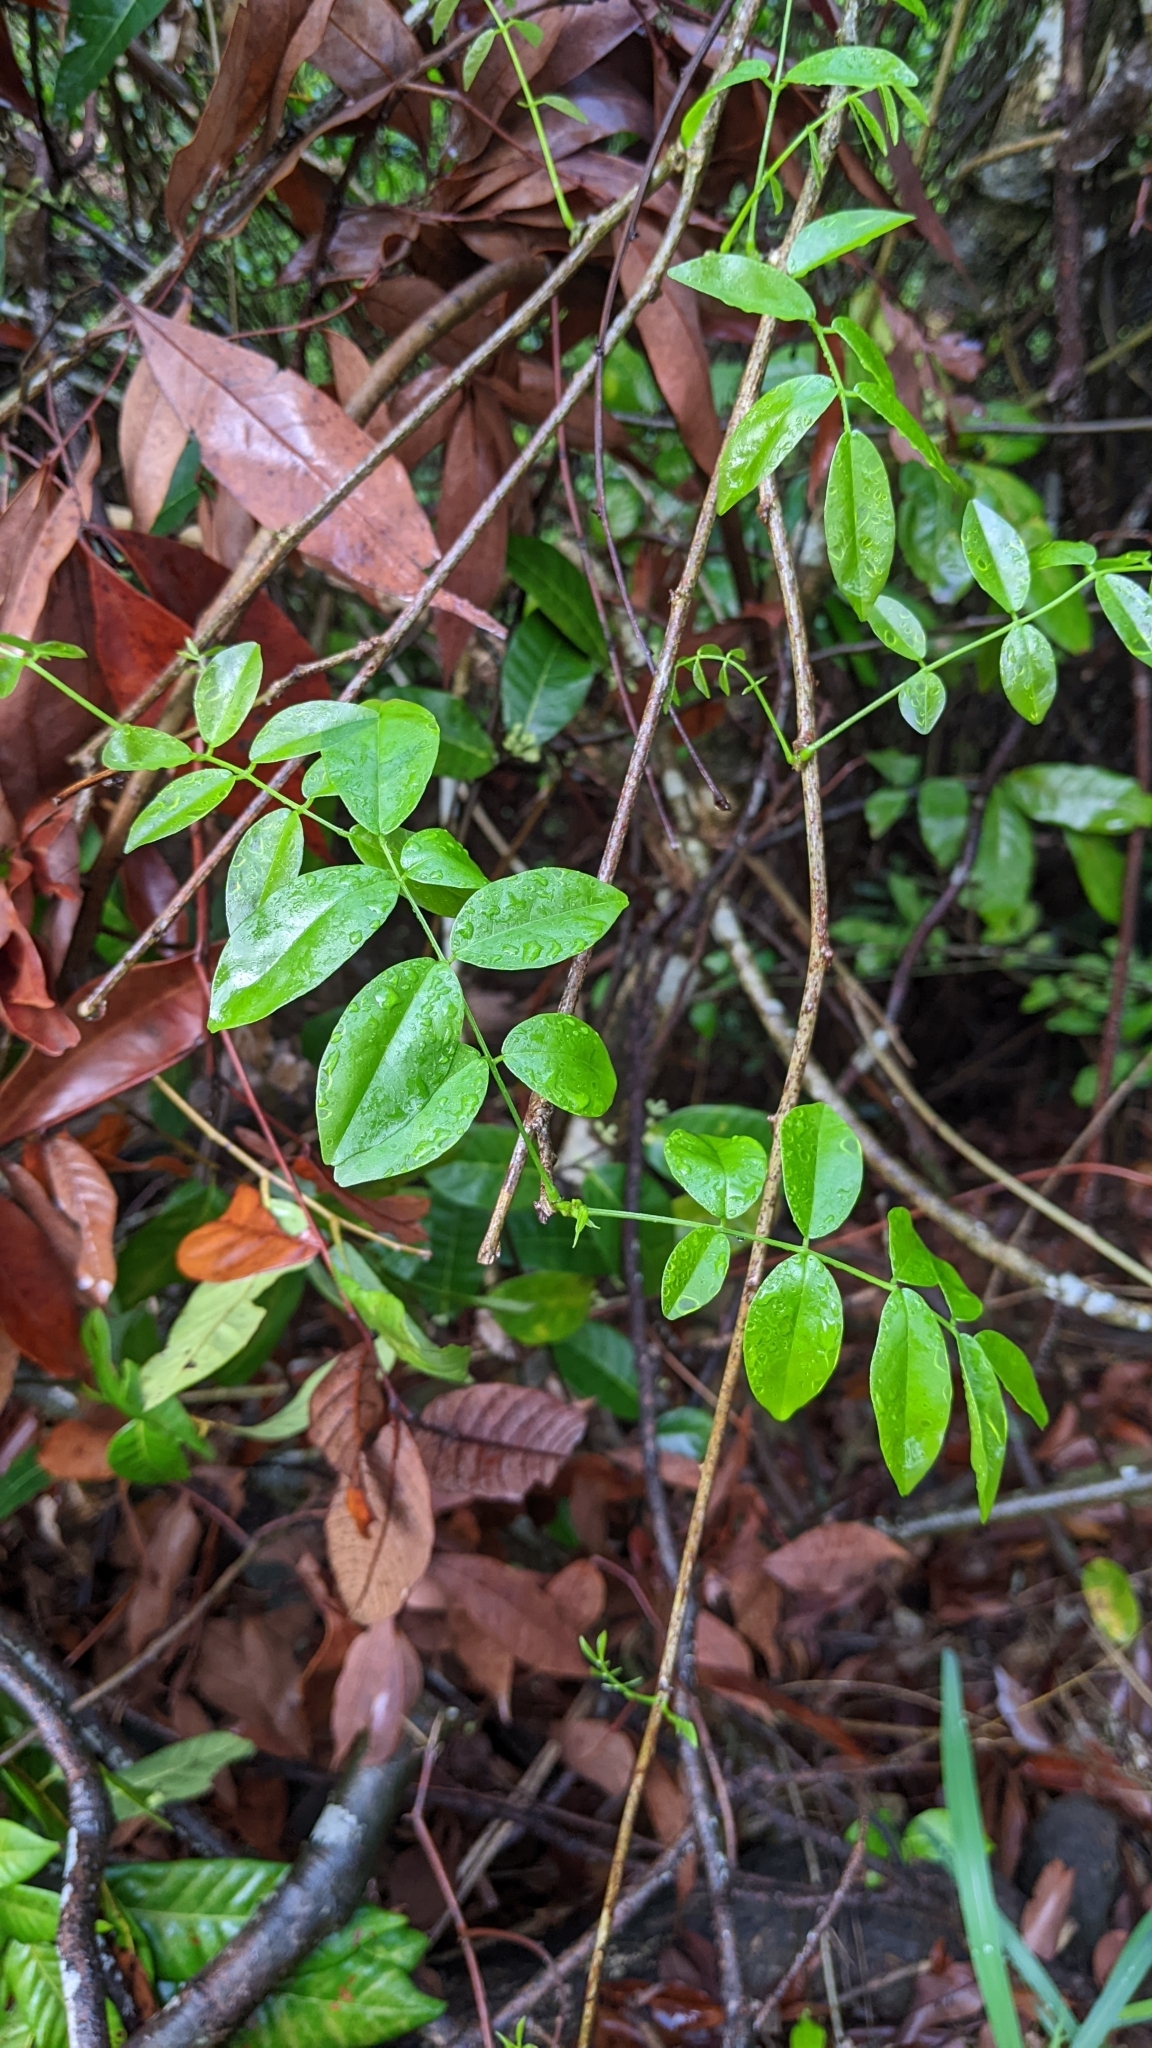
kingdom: Plantae
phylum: Tracheophyta
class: Magnoliopsida
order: Fabales
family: Fabaceae
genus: Wisteriopsis
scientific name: Wisteriopsis reticulata
